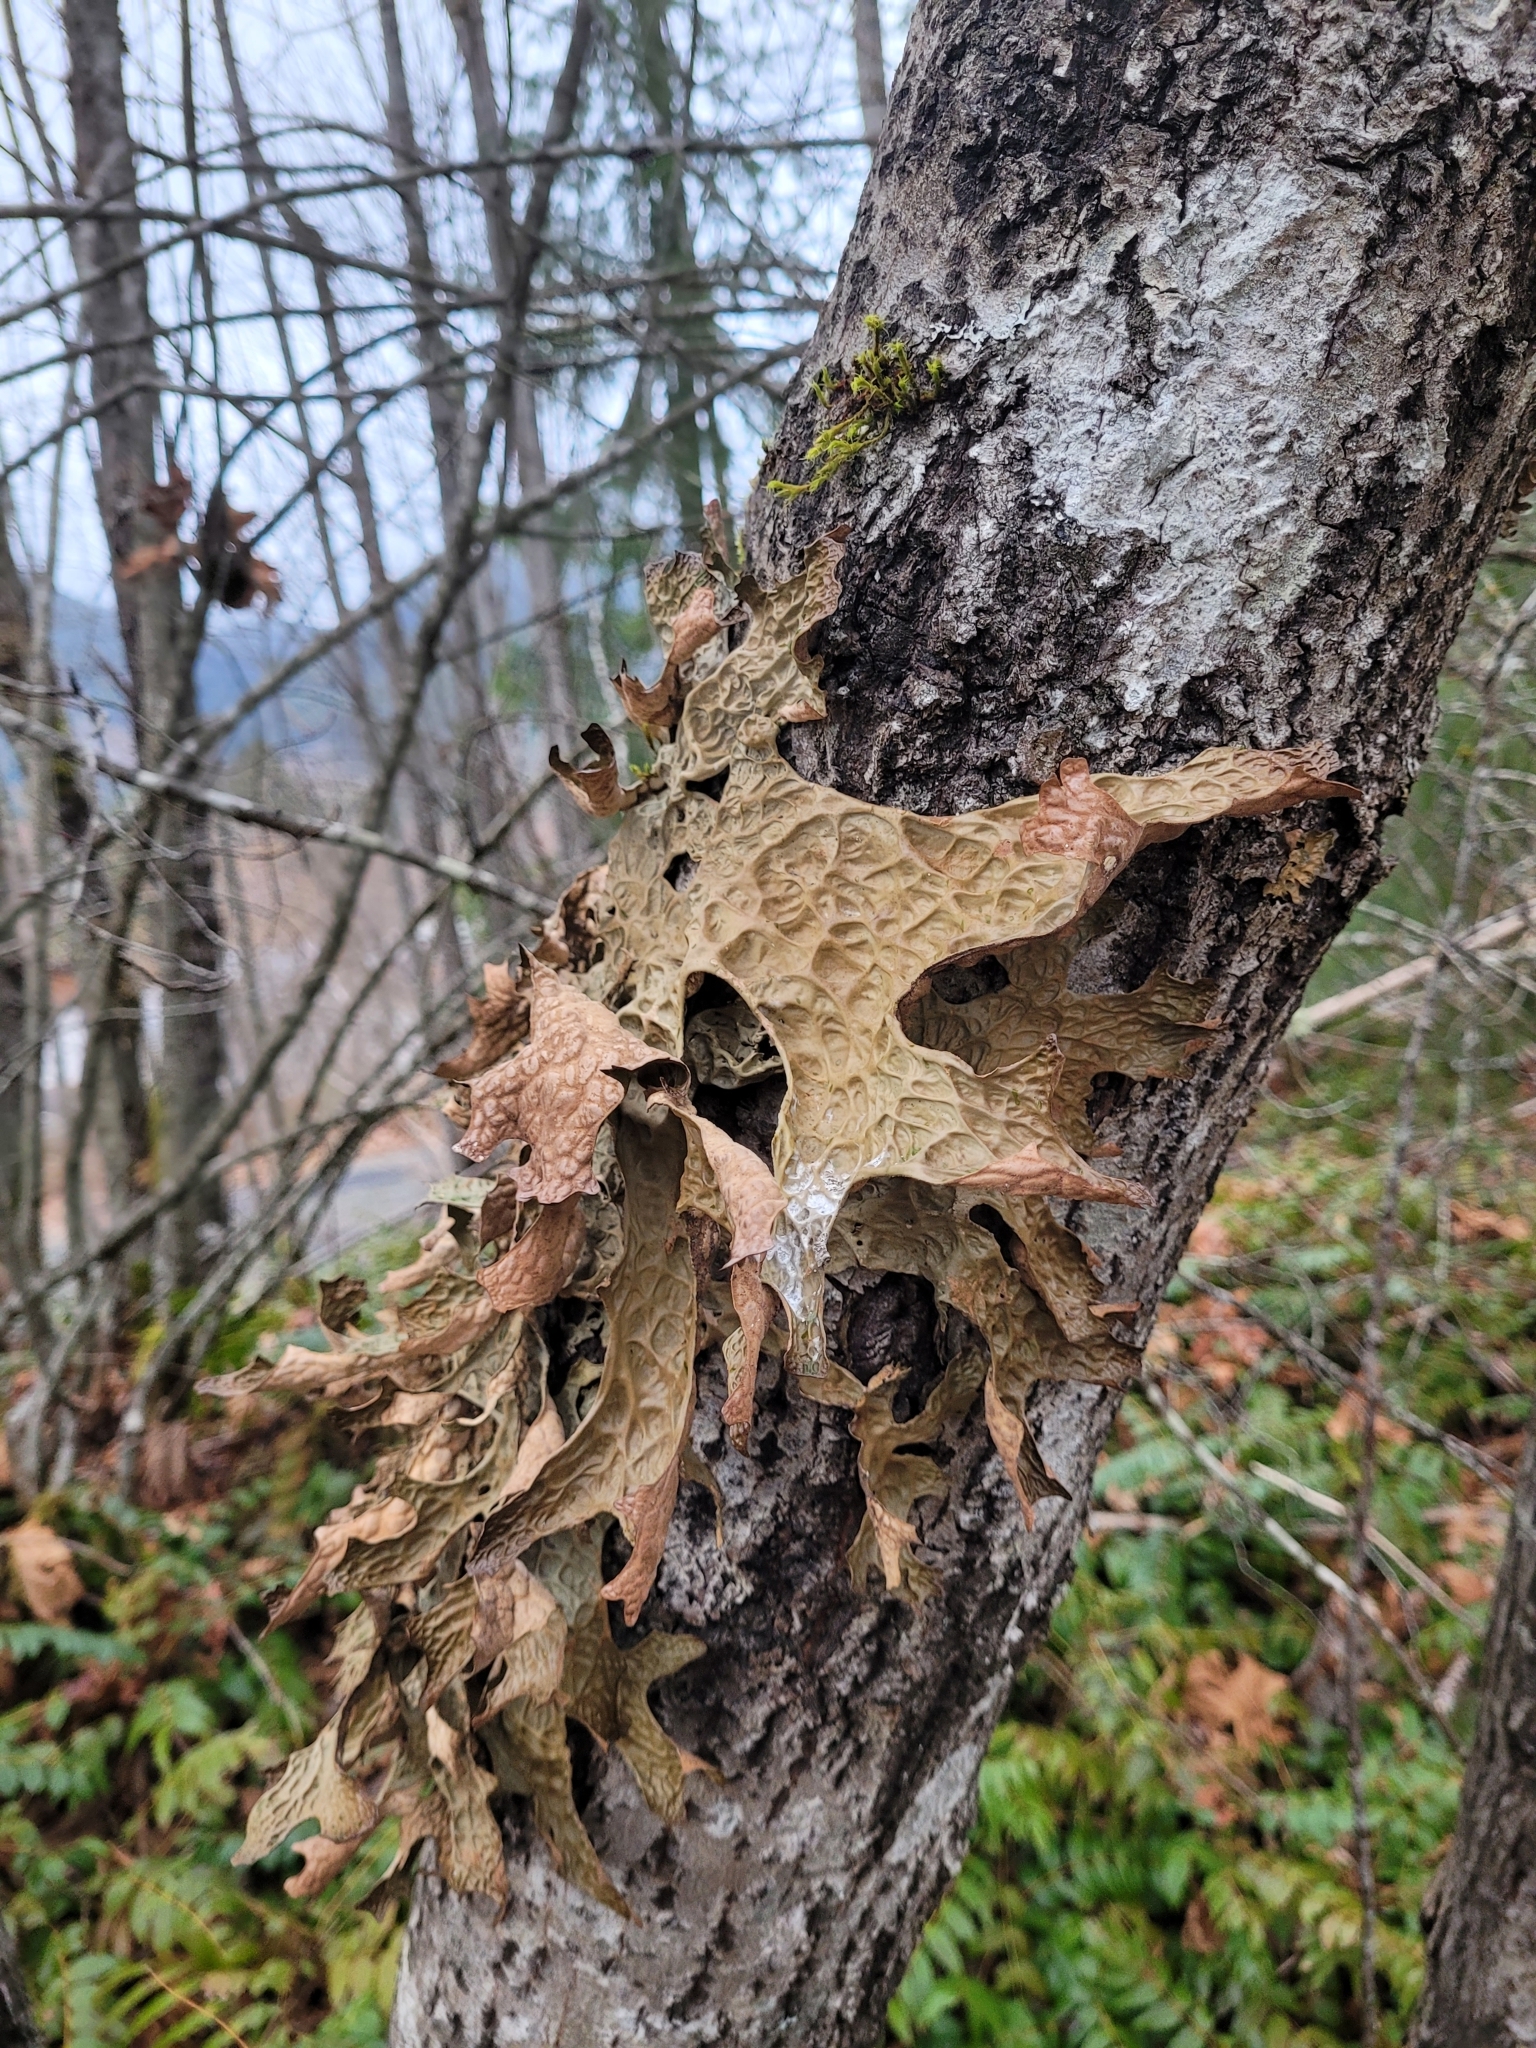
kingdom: Fungi
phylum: Ascomycota
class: Lecanoromycetes
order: Peltigerales
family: Lobariaceae
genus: Lobaria
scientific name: Lobaria pulmonaria
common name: Lungwort
